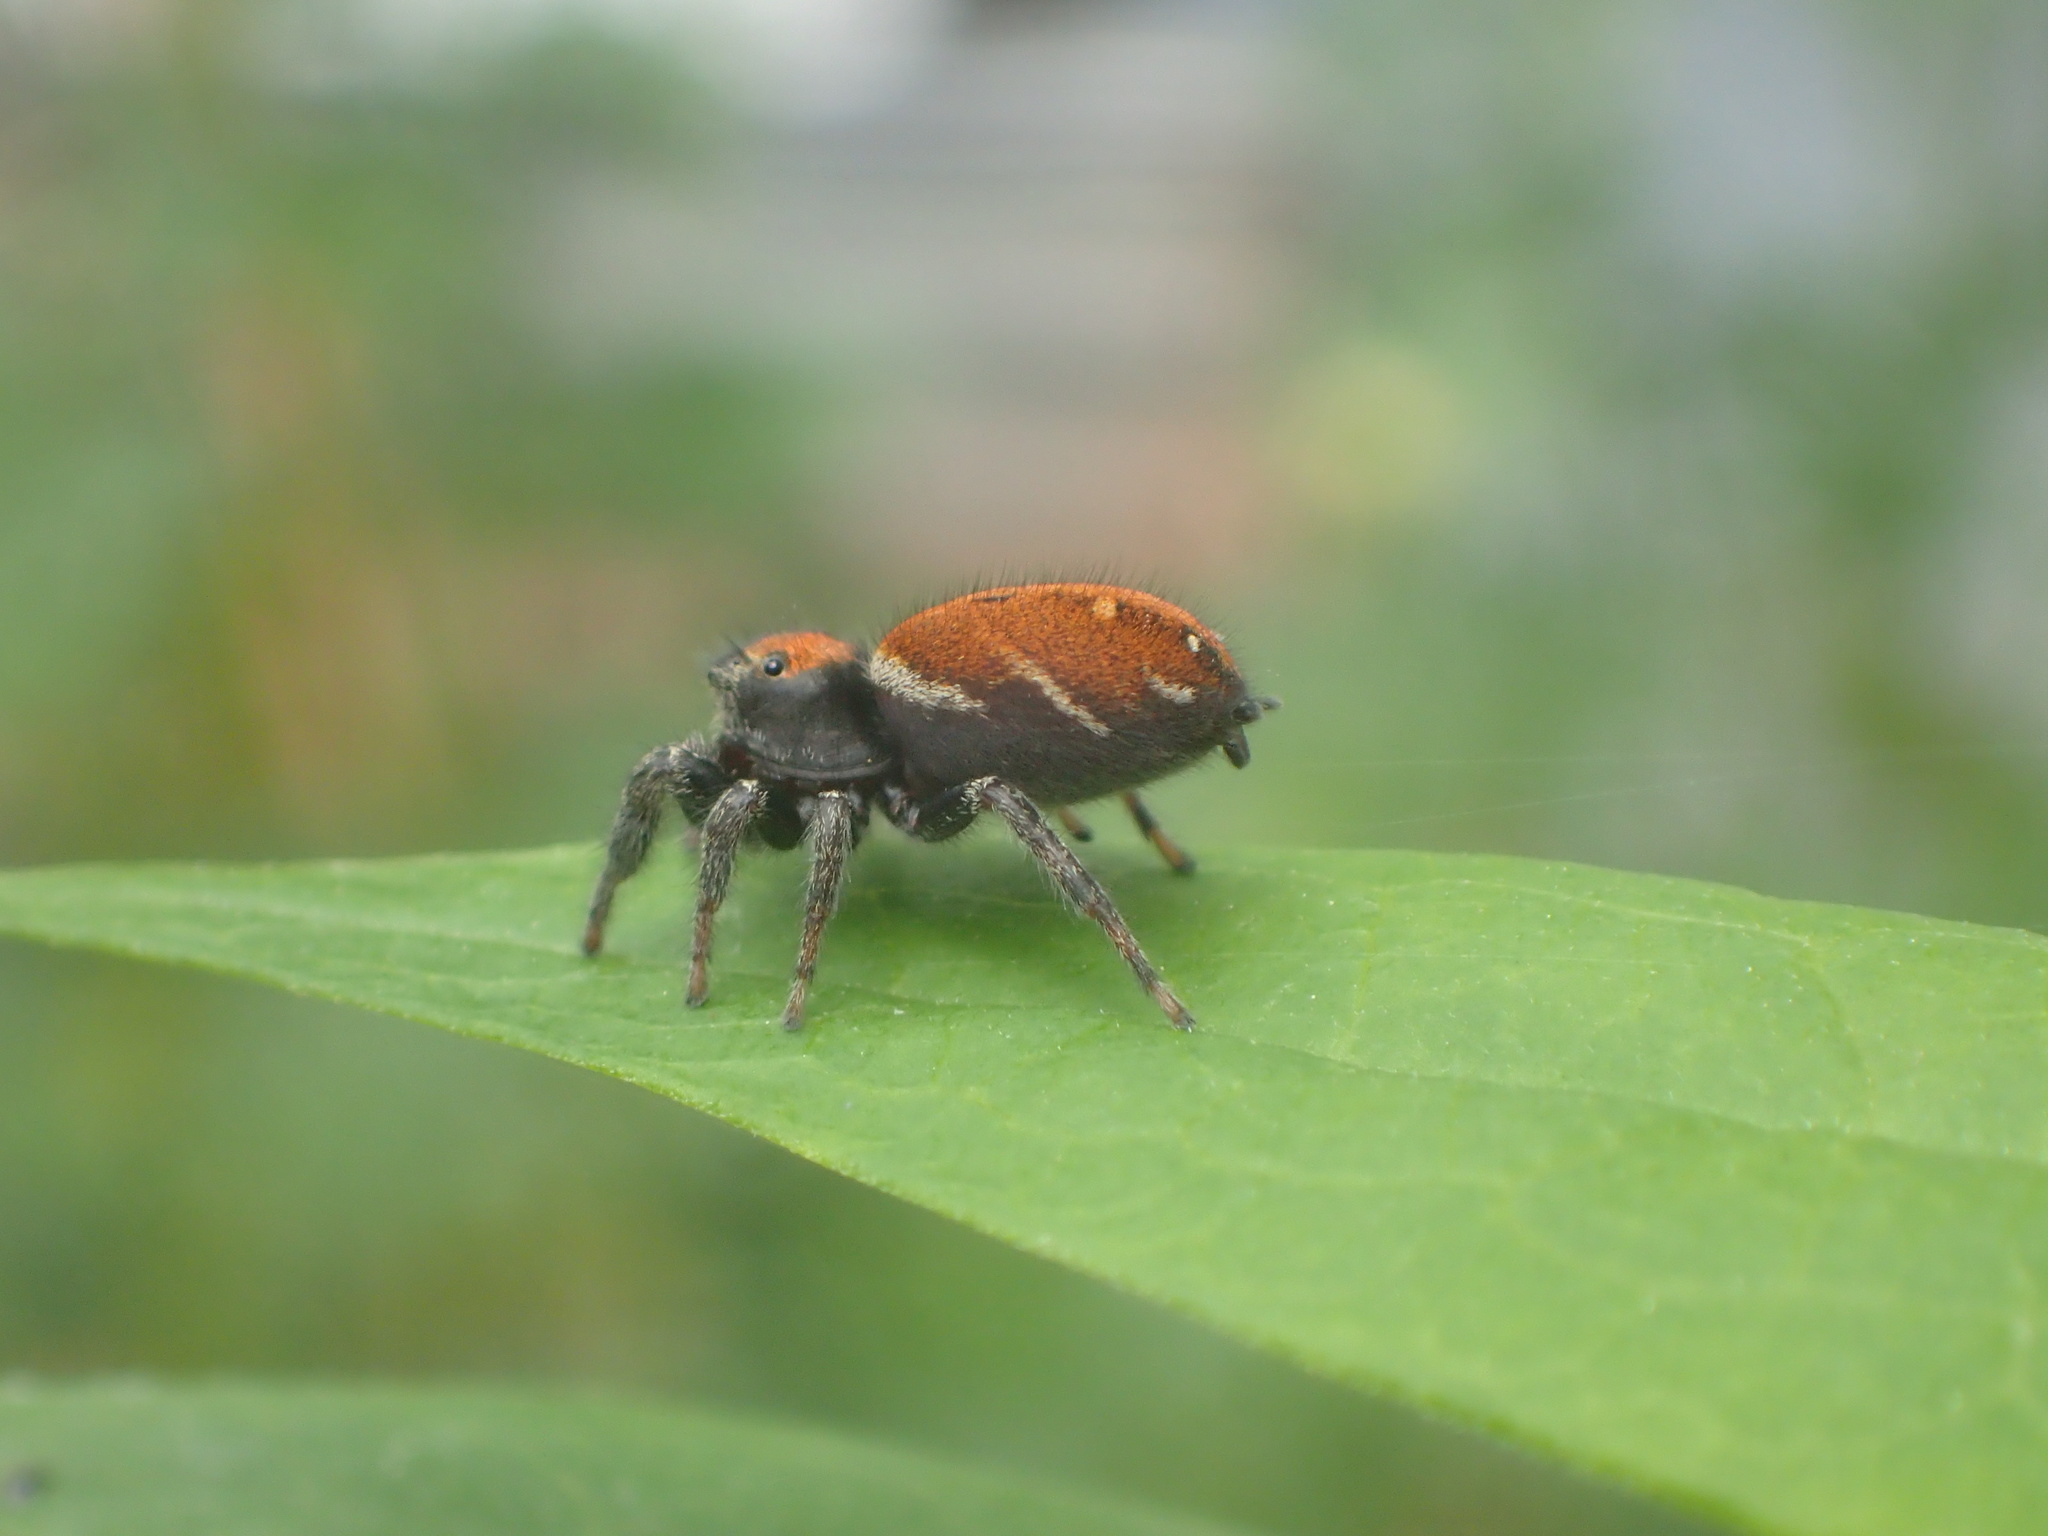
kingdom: Animalia
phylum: Arthropoda
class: Arachnida
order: Araneae
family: Salticidae
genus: Phidippus
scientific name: Phidippus whitmani
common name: Whitman's jumping spider
